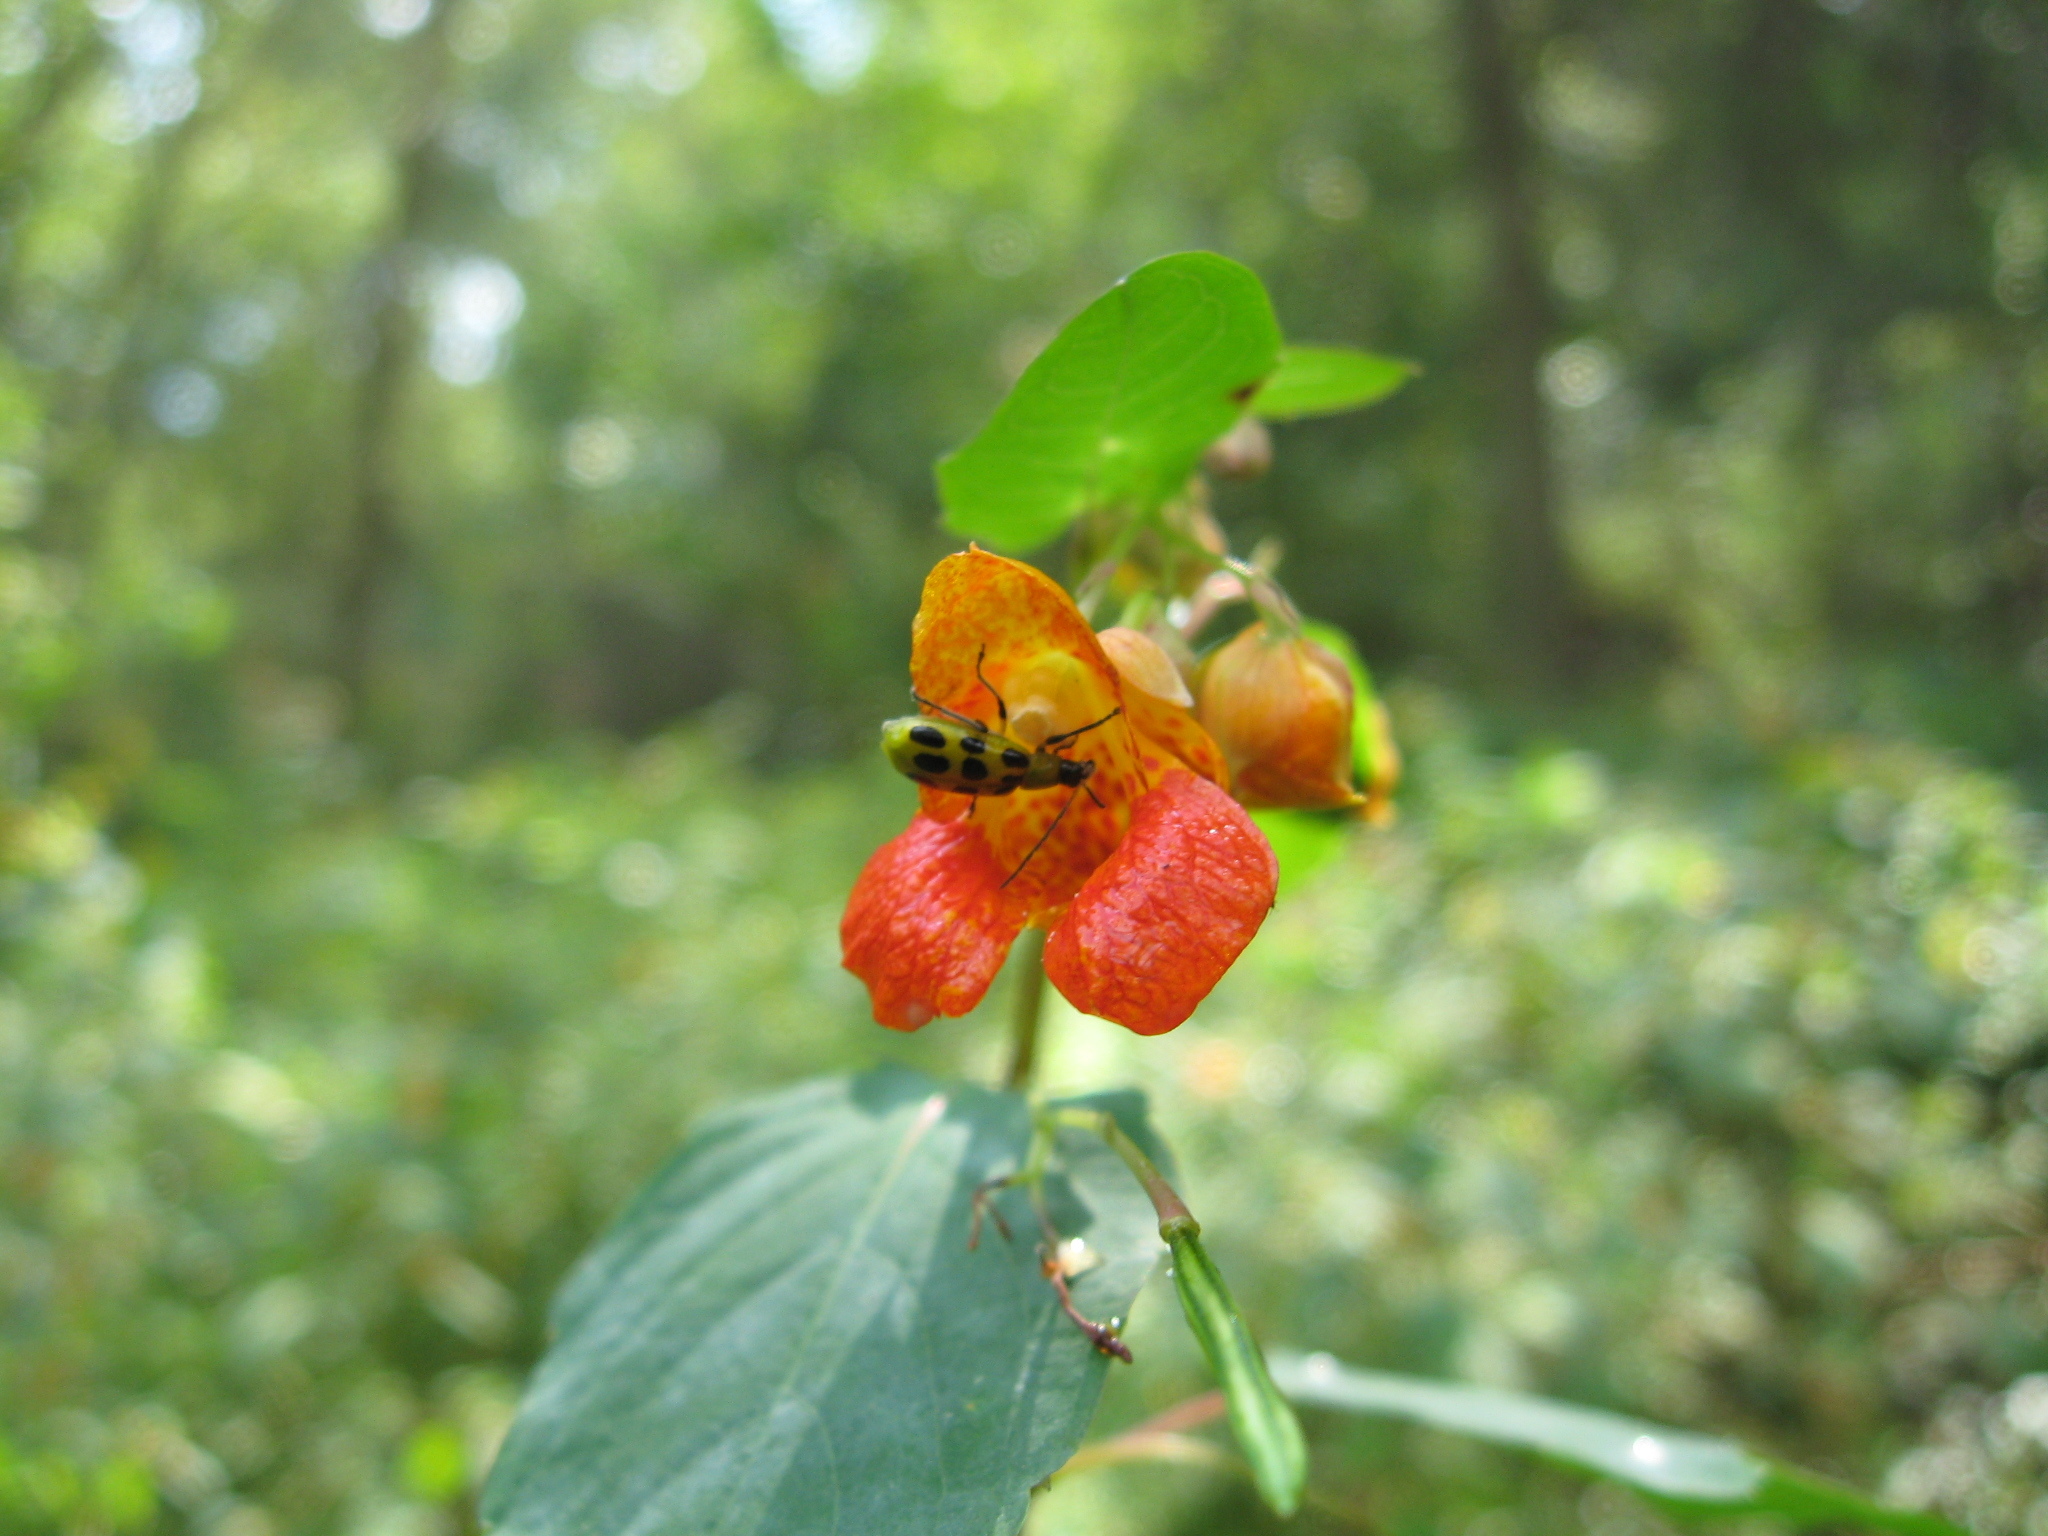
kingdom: Plantae
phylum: Tracheophyta
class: Magnoliopsida
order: Ericales
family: Balsaminaceae
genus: Impatiens
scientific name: Impatiens capensis
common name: Orange balsam
